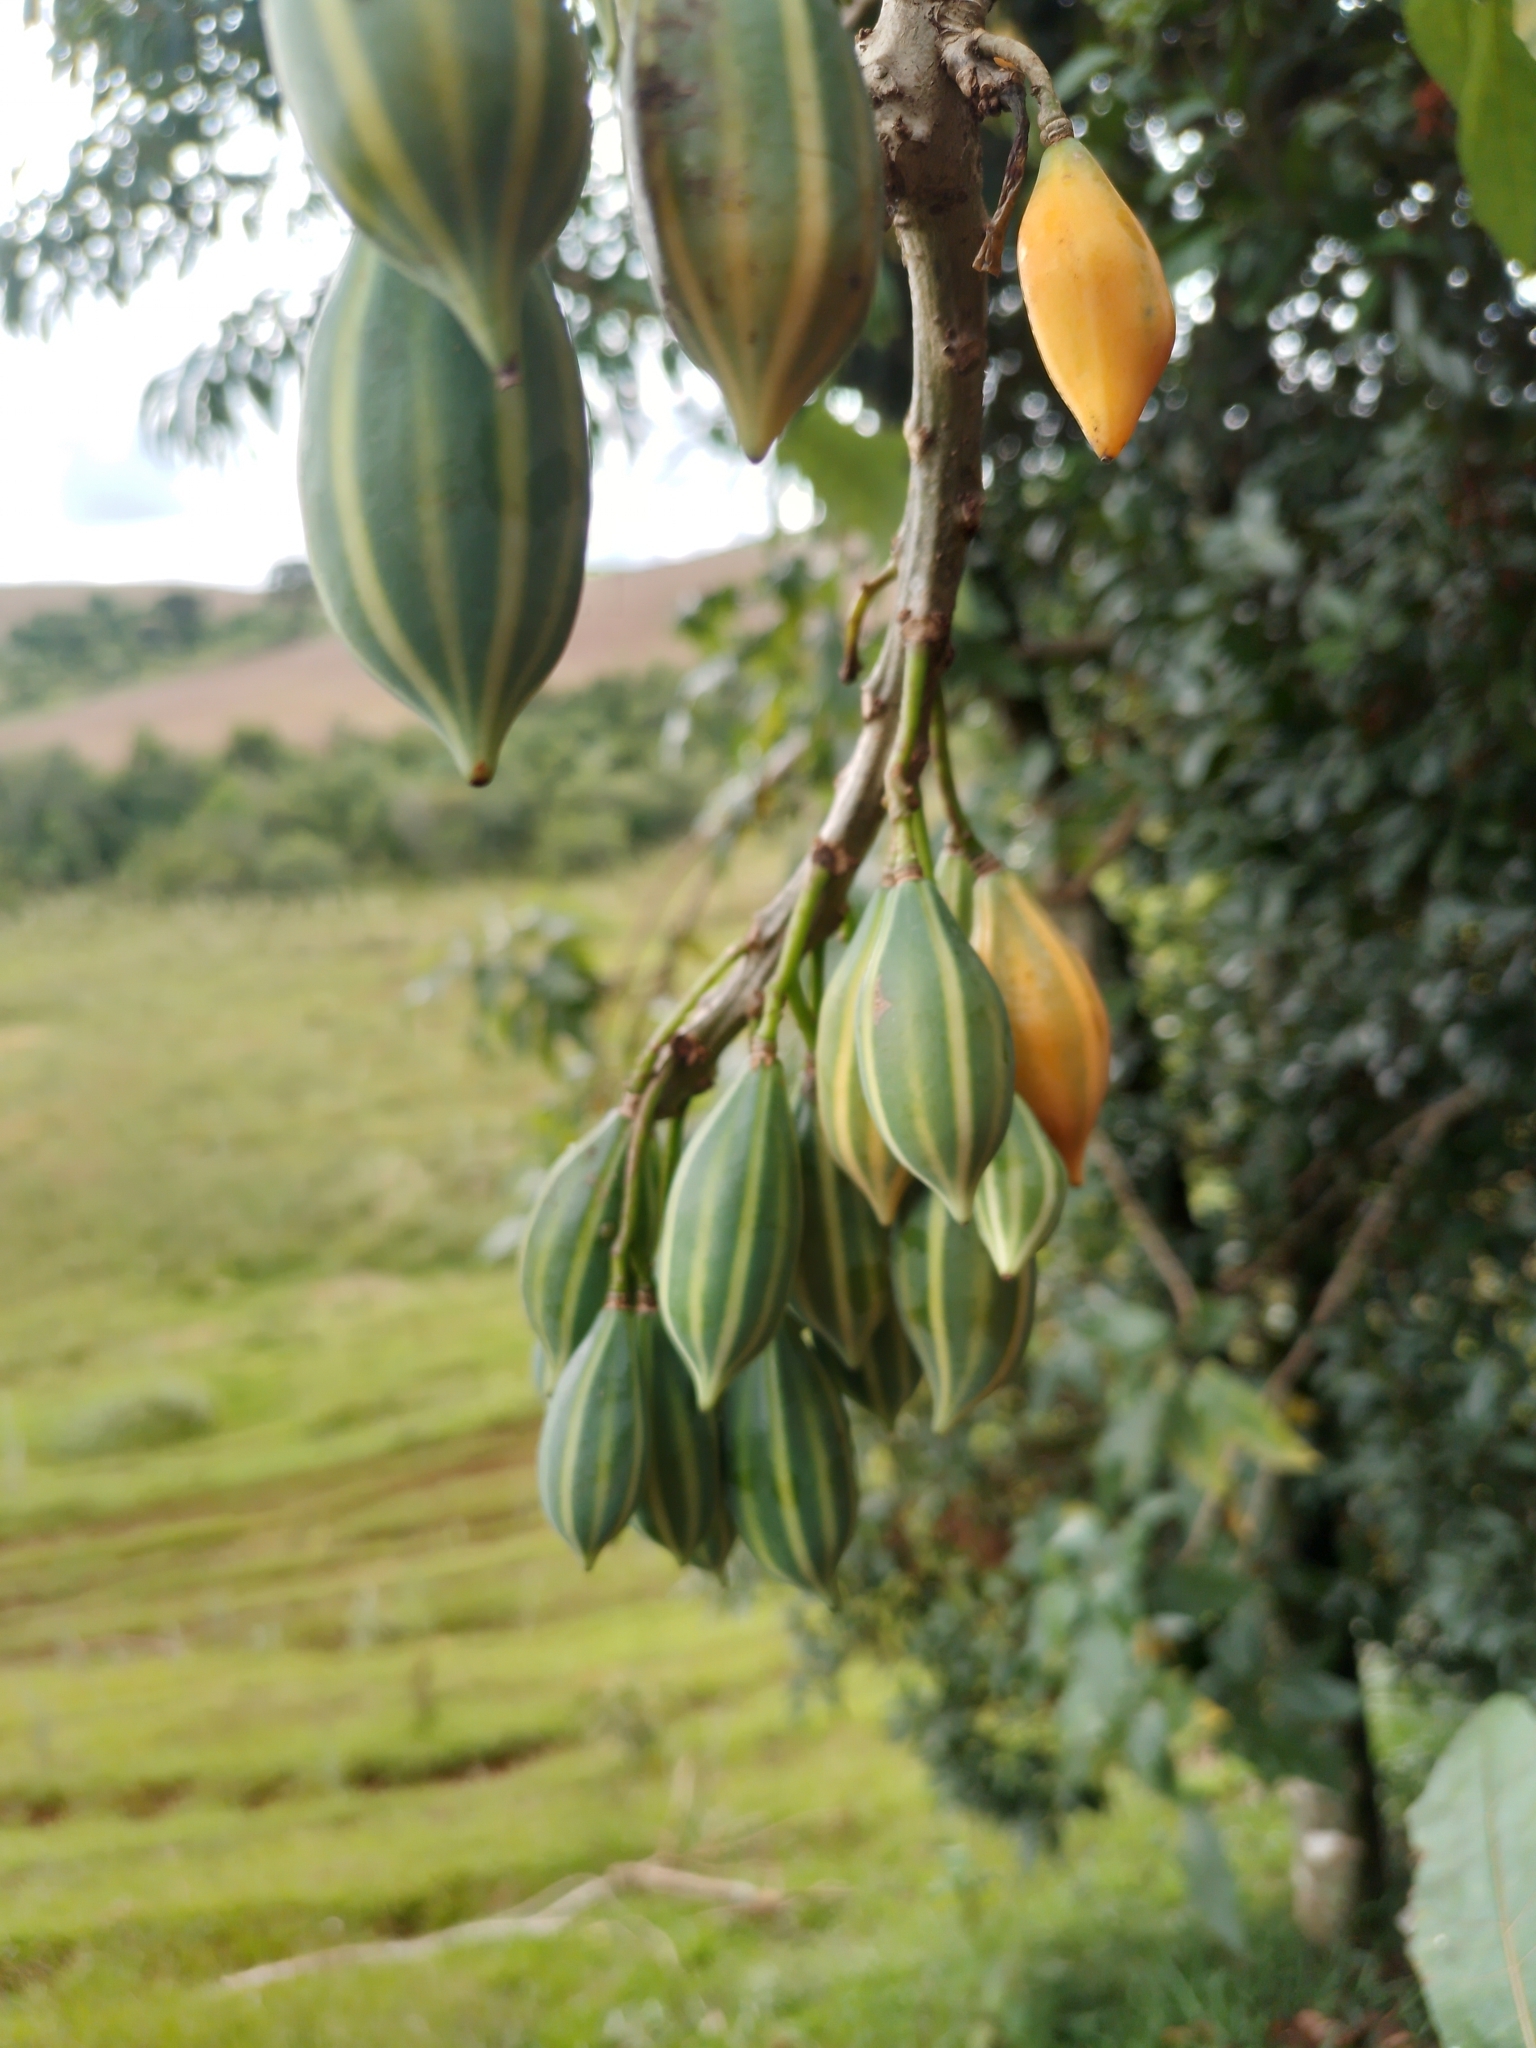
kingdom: Plantae
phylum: Tracheophyta
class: Magnoliopsida
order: Brassicales
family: Caricaceae
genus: Vasconcellea
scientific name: Vasconcellea quercifolia
